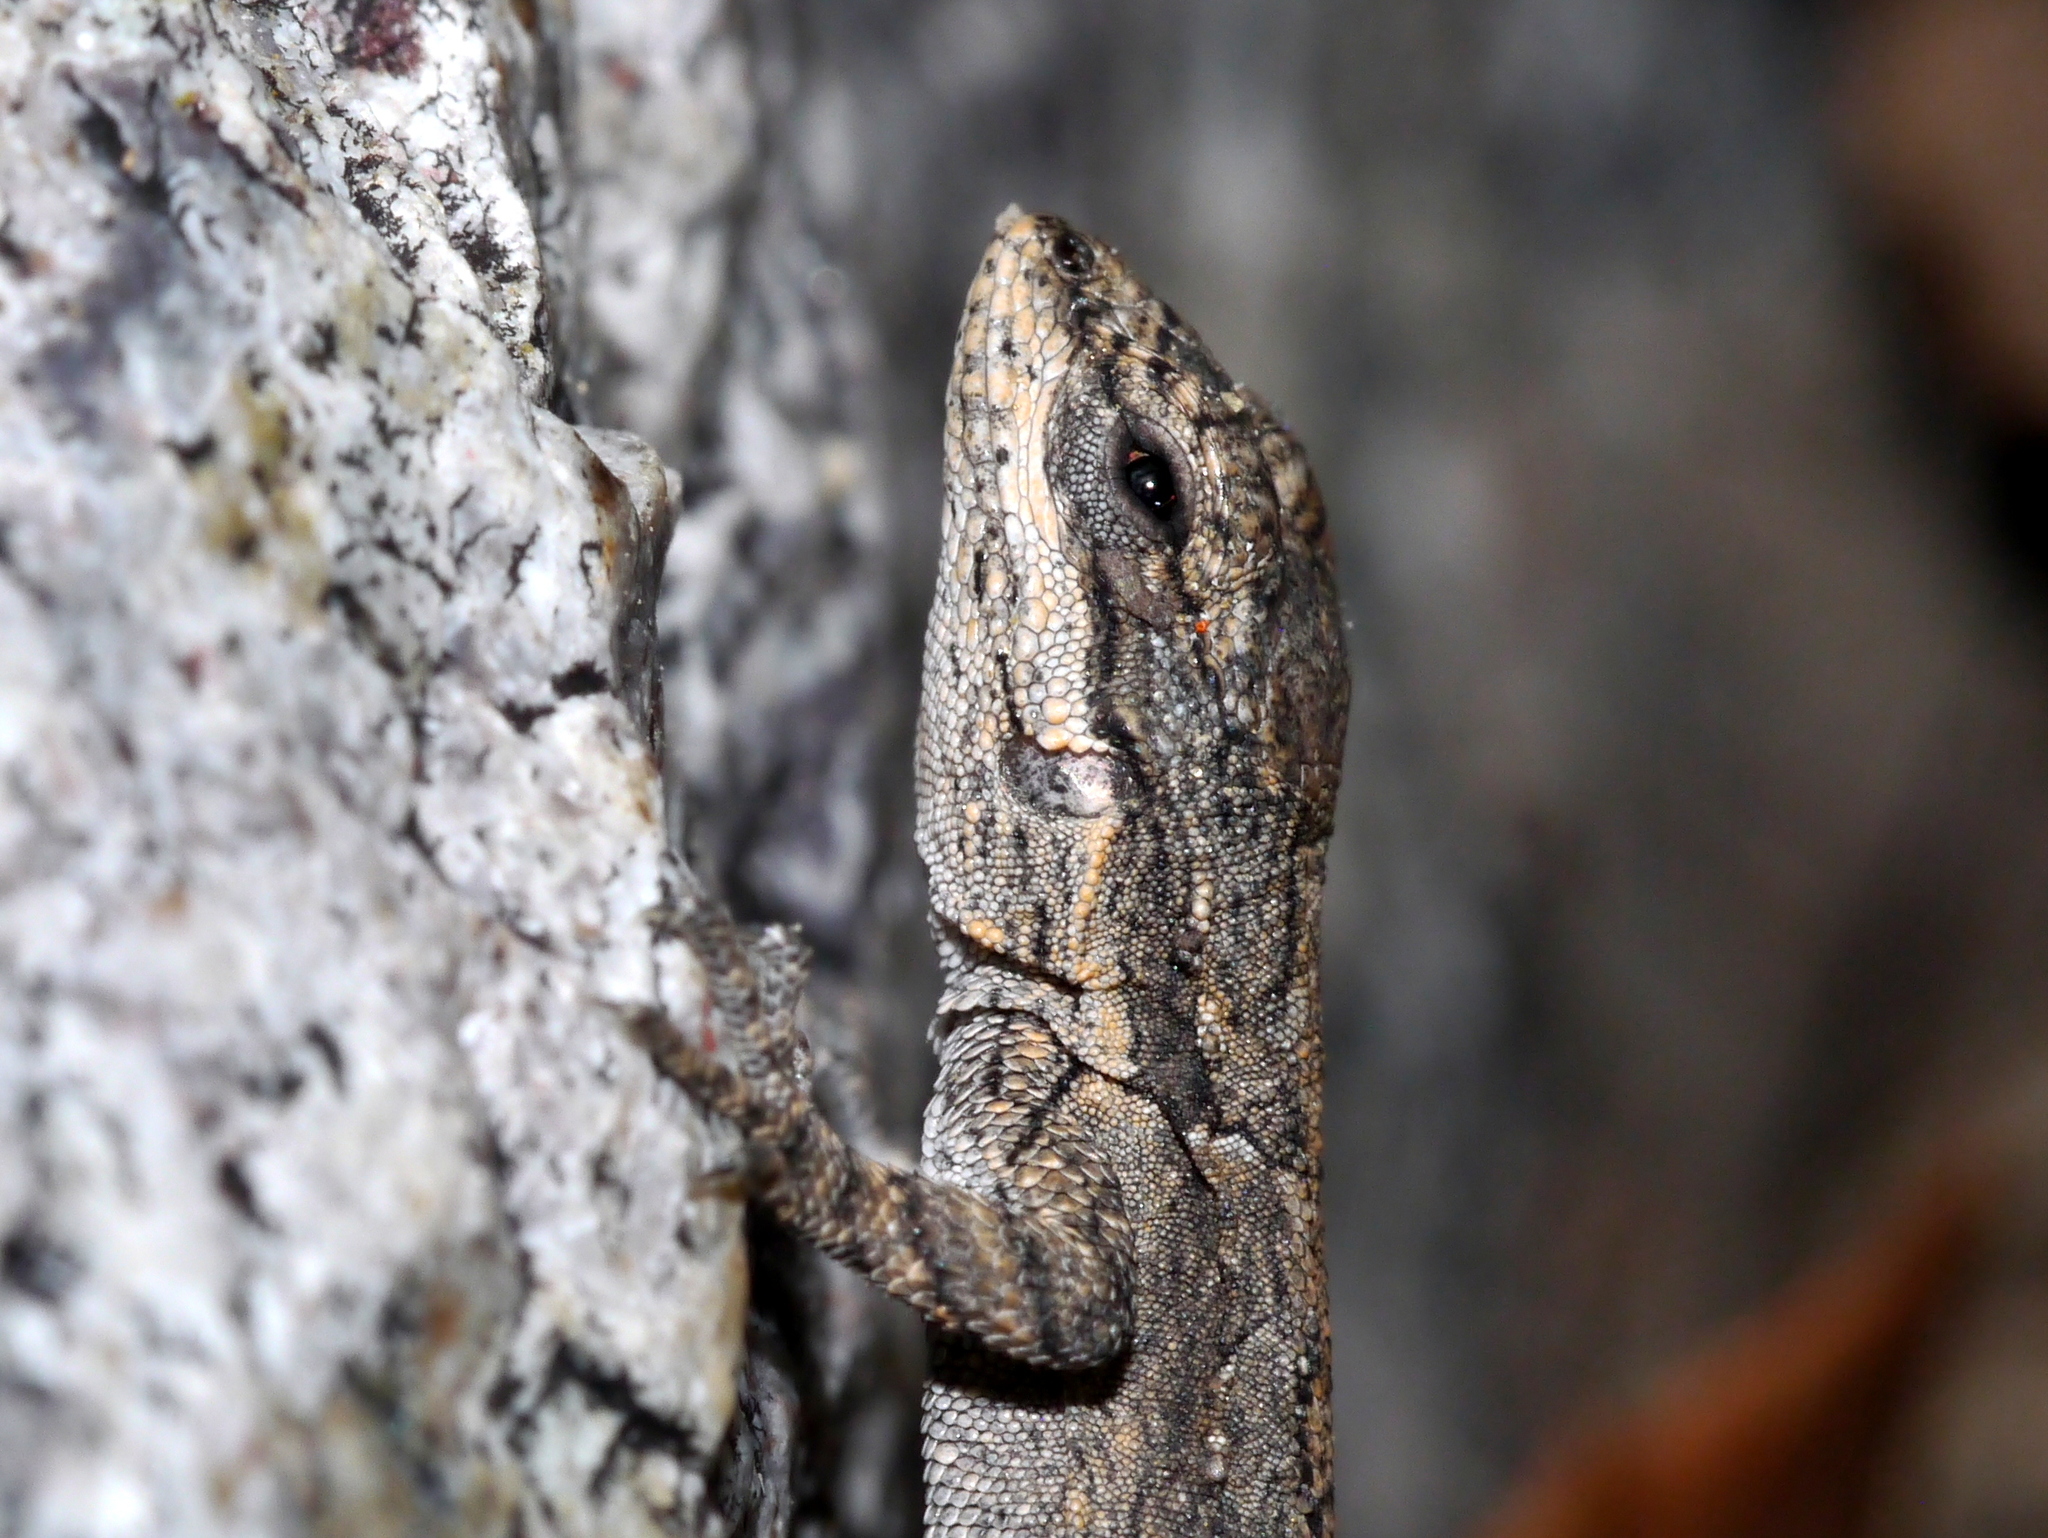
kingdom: Animalia
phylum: Chordata
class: Squamata
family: Phrynosomatidae
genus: Urosaurus
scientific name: Urosaurus ornatus
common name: Ornate tree lizard
